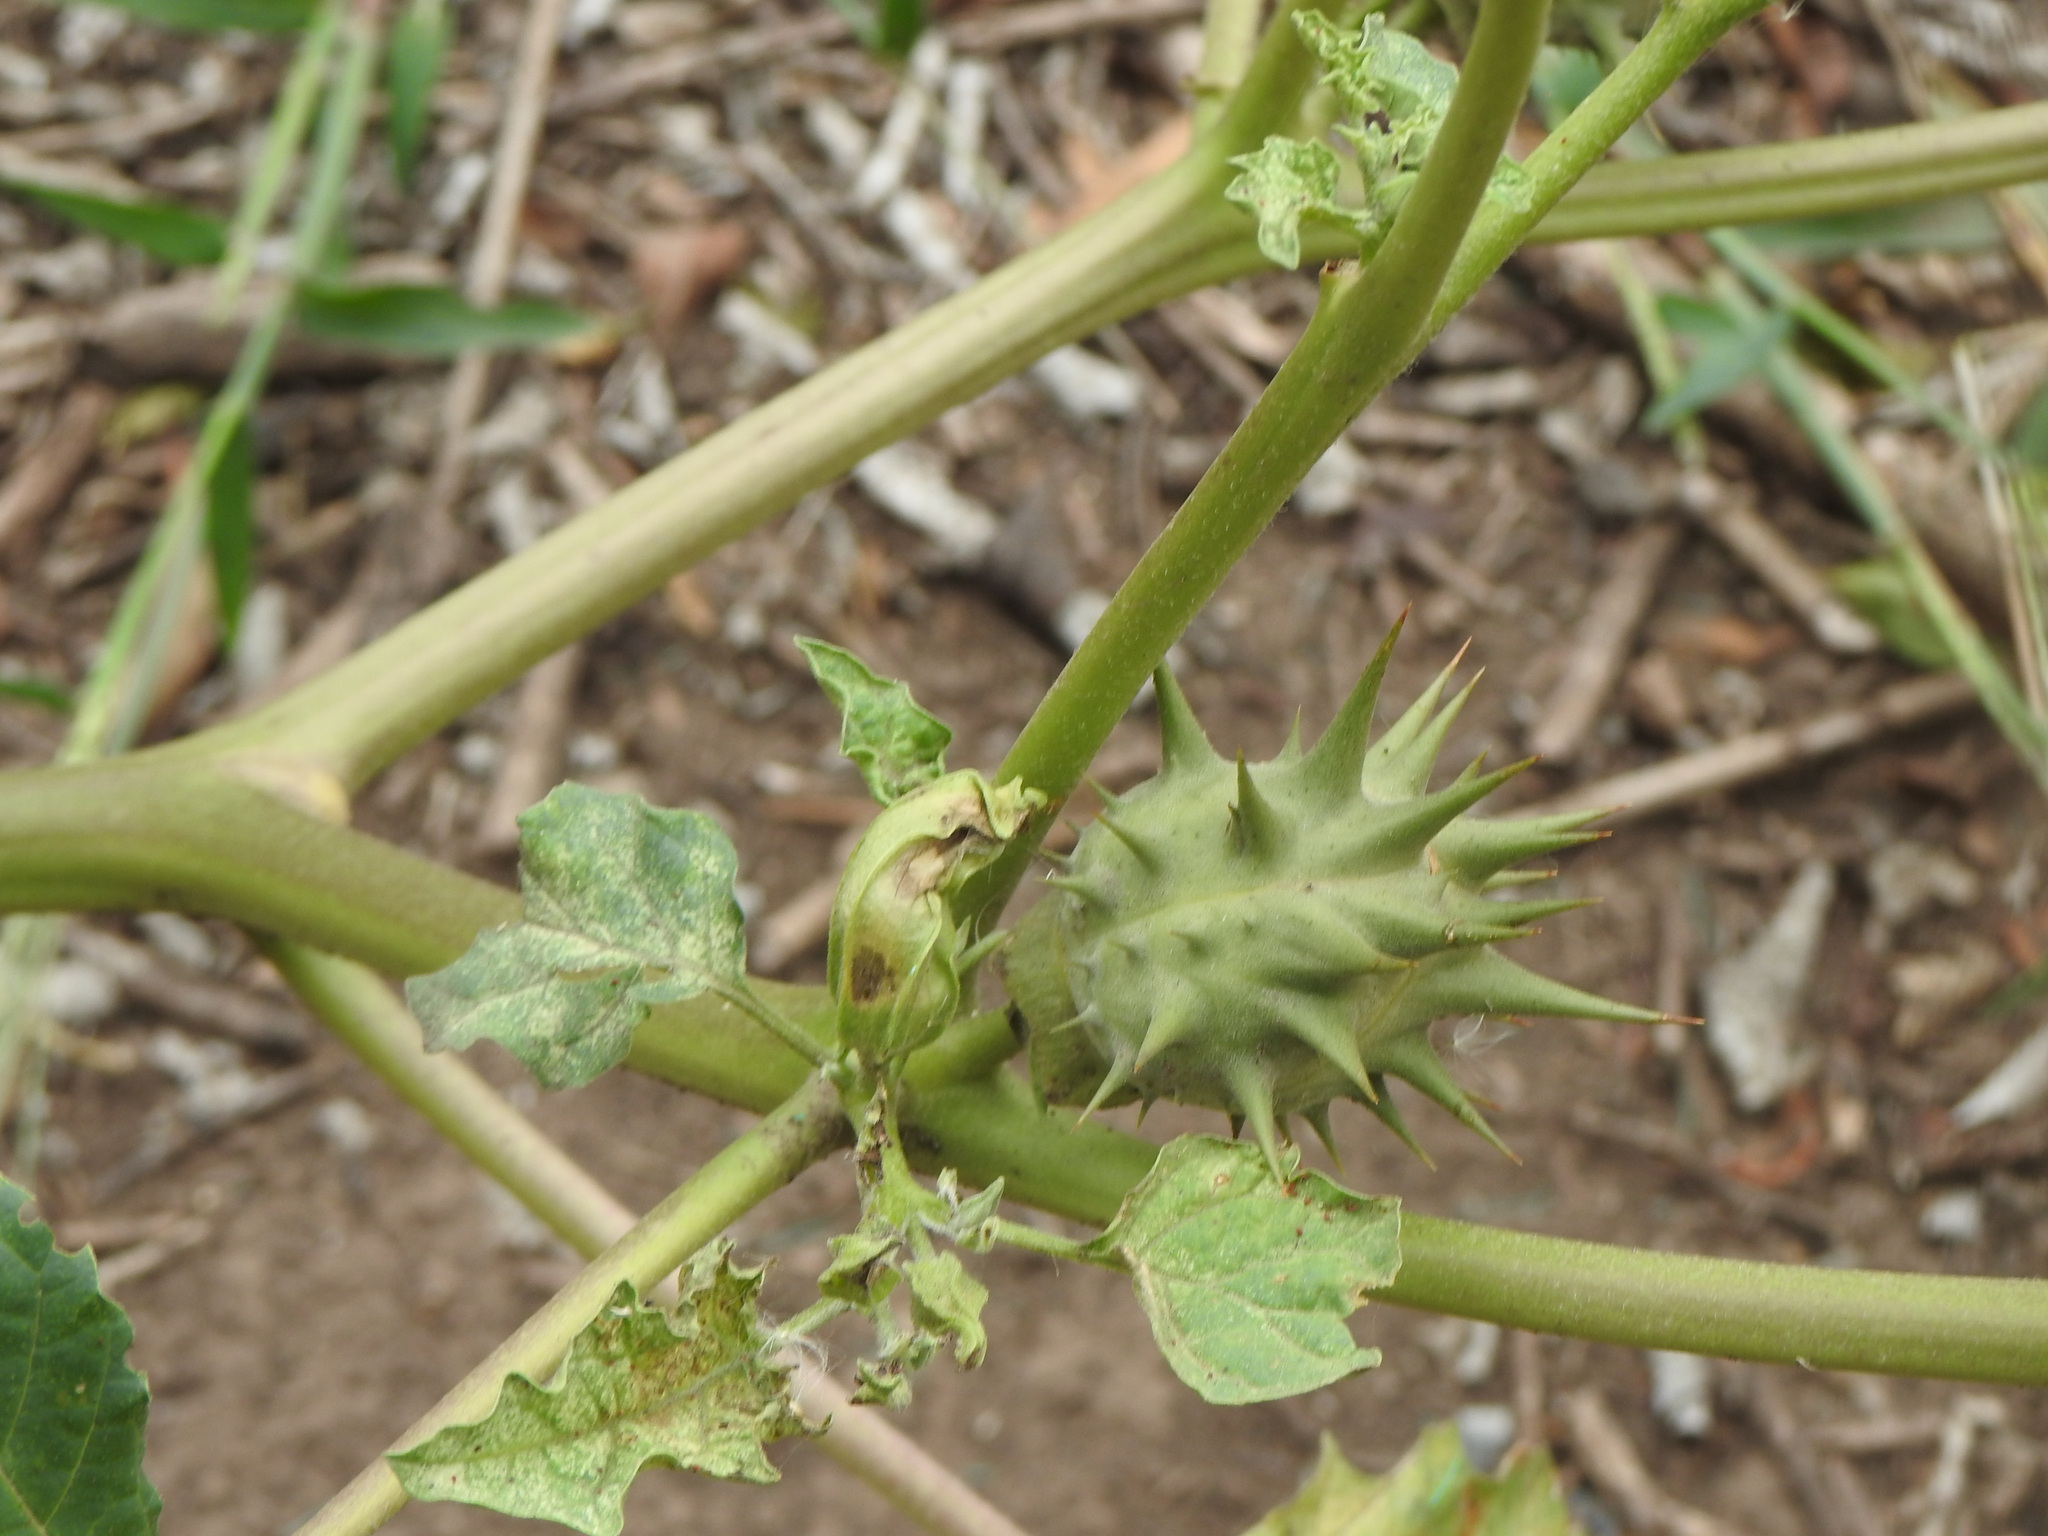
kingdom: Plantae
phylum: Tracheophyta
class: Magnoliopsida
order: Solanales
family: Solanaceae
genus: Datura
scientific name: Datura ferox
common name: Angel's-trumpets
